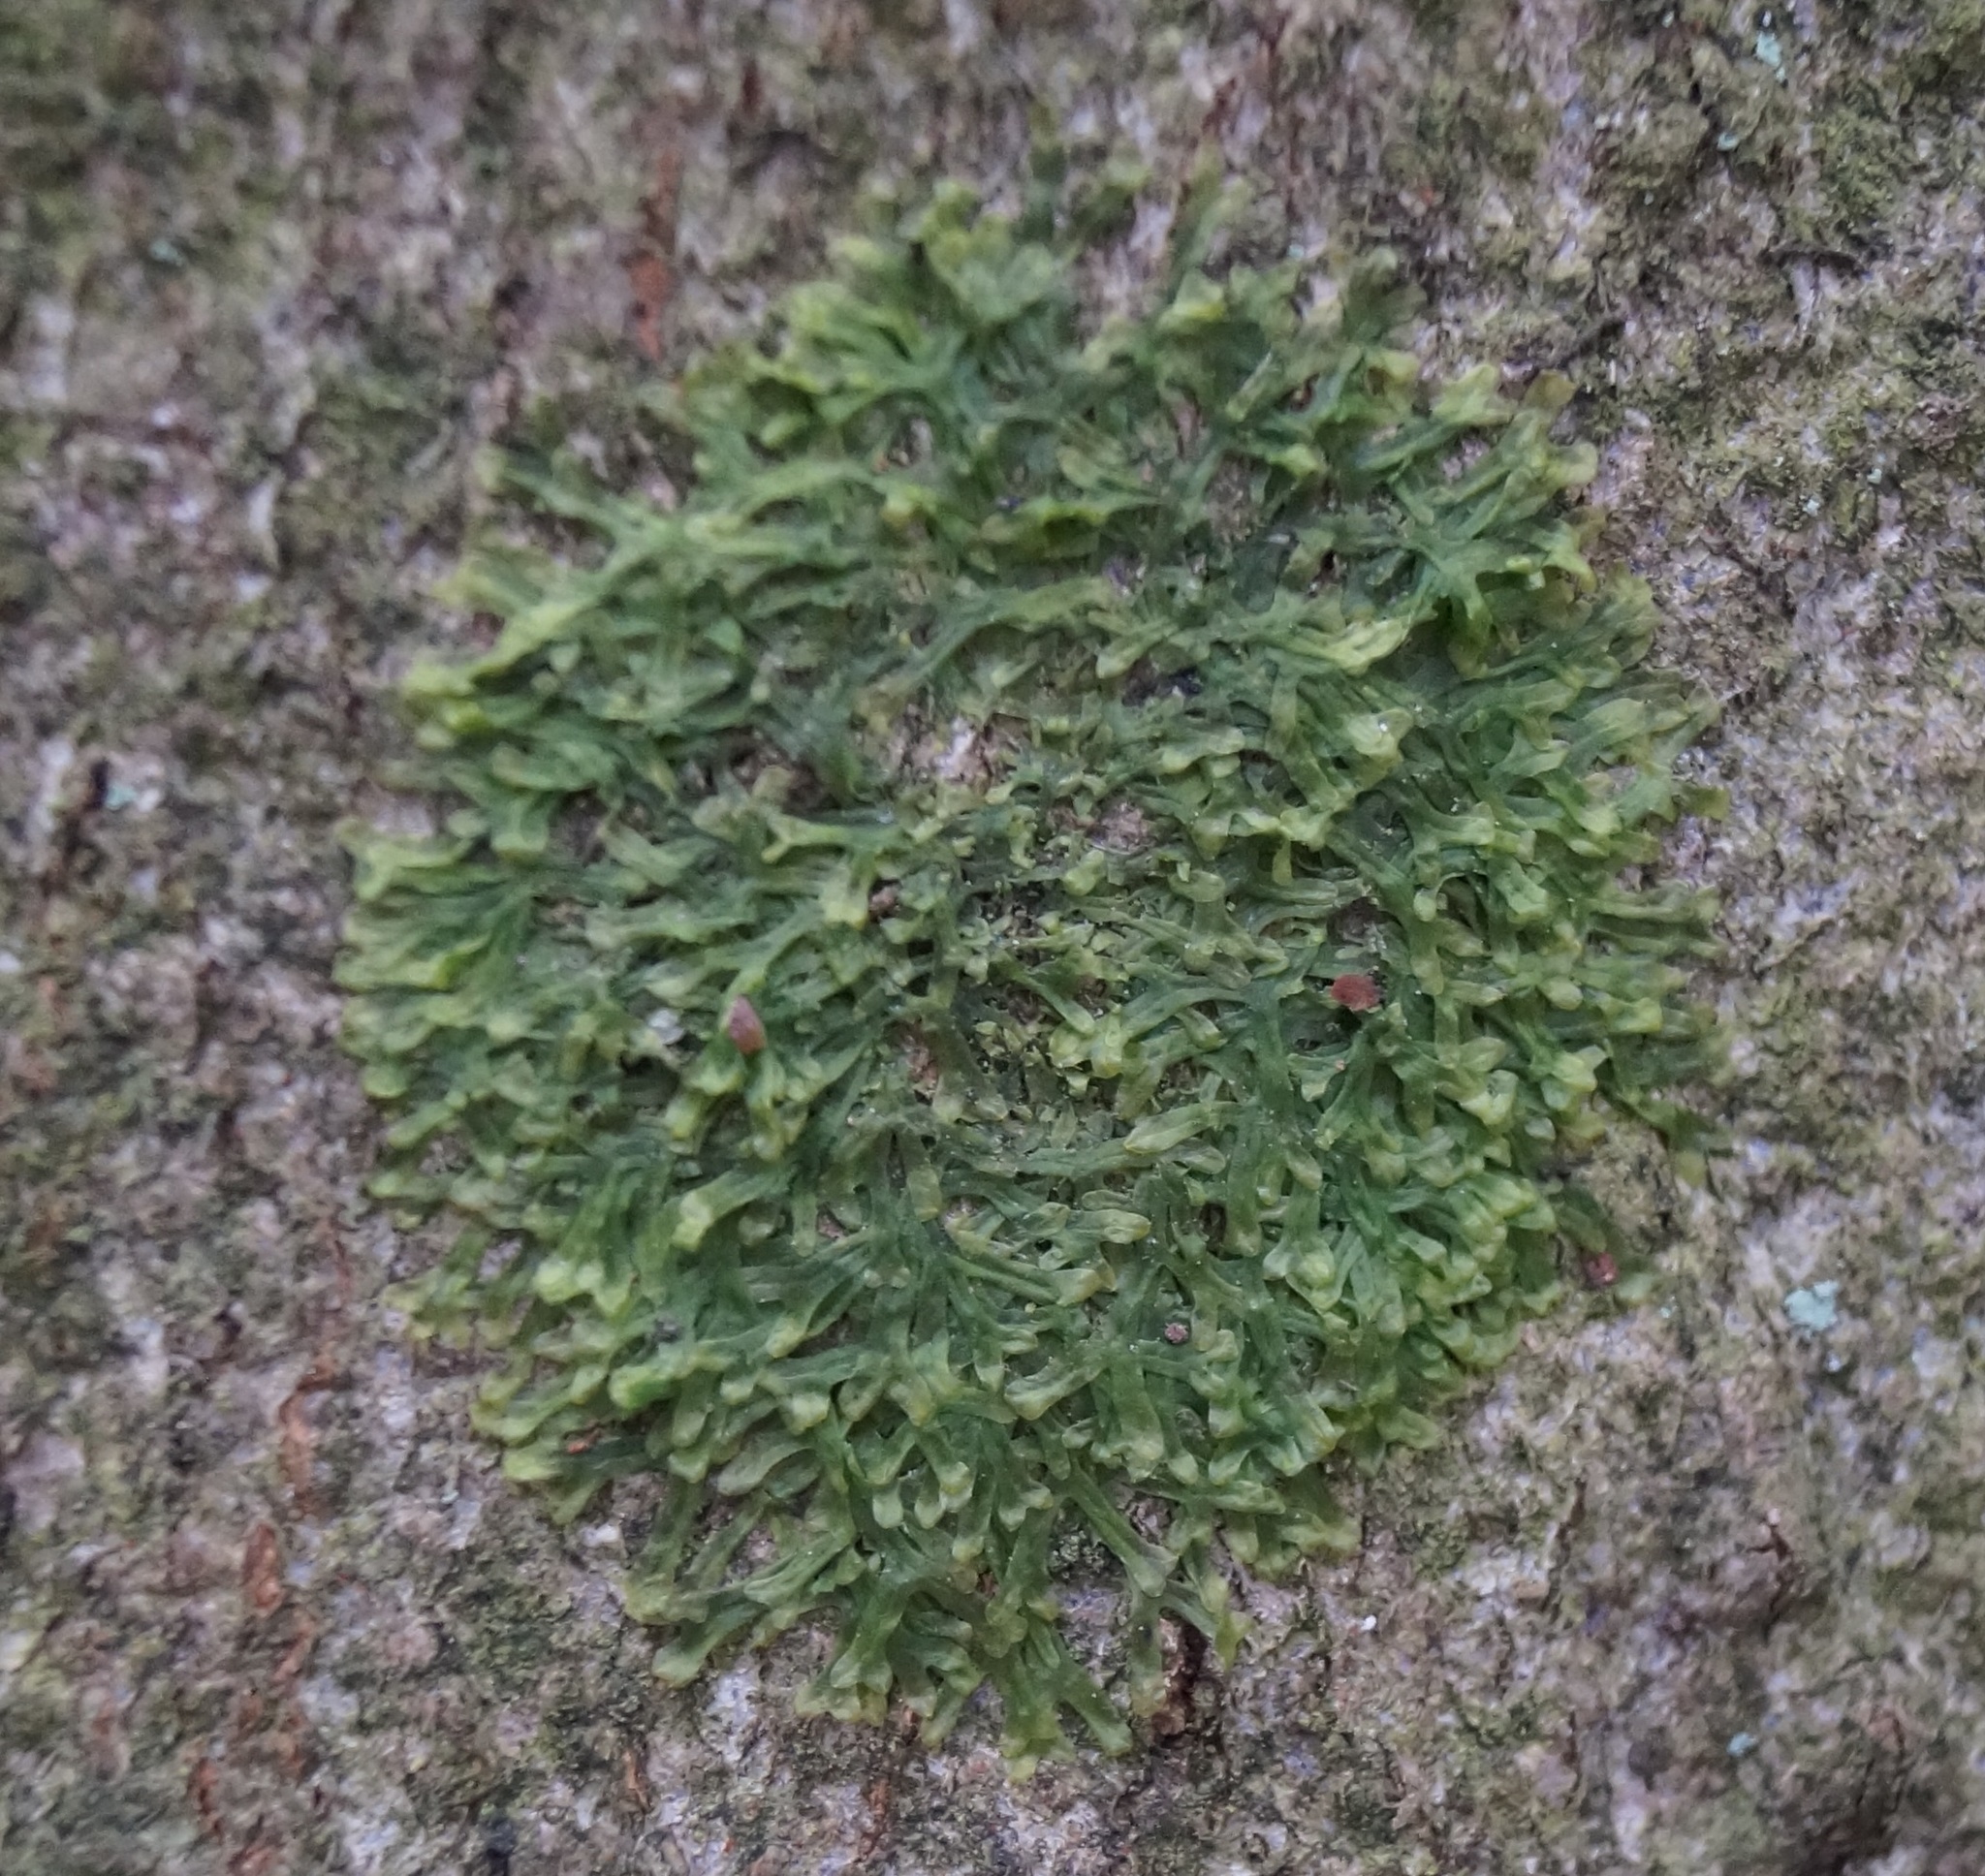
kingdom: Plantae
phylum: Marchantiophyta
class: Jungermanniopsida
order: Metzgeriales
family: Metzgeriaceae
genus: Metzgeria
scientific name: Metzgeria furcata
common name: Forked veilwort
